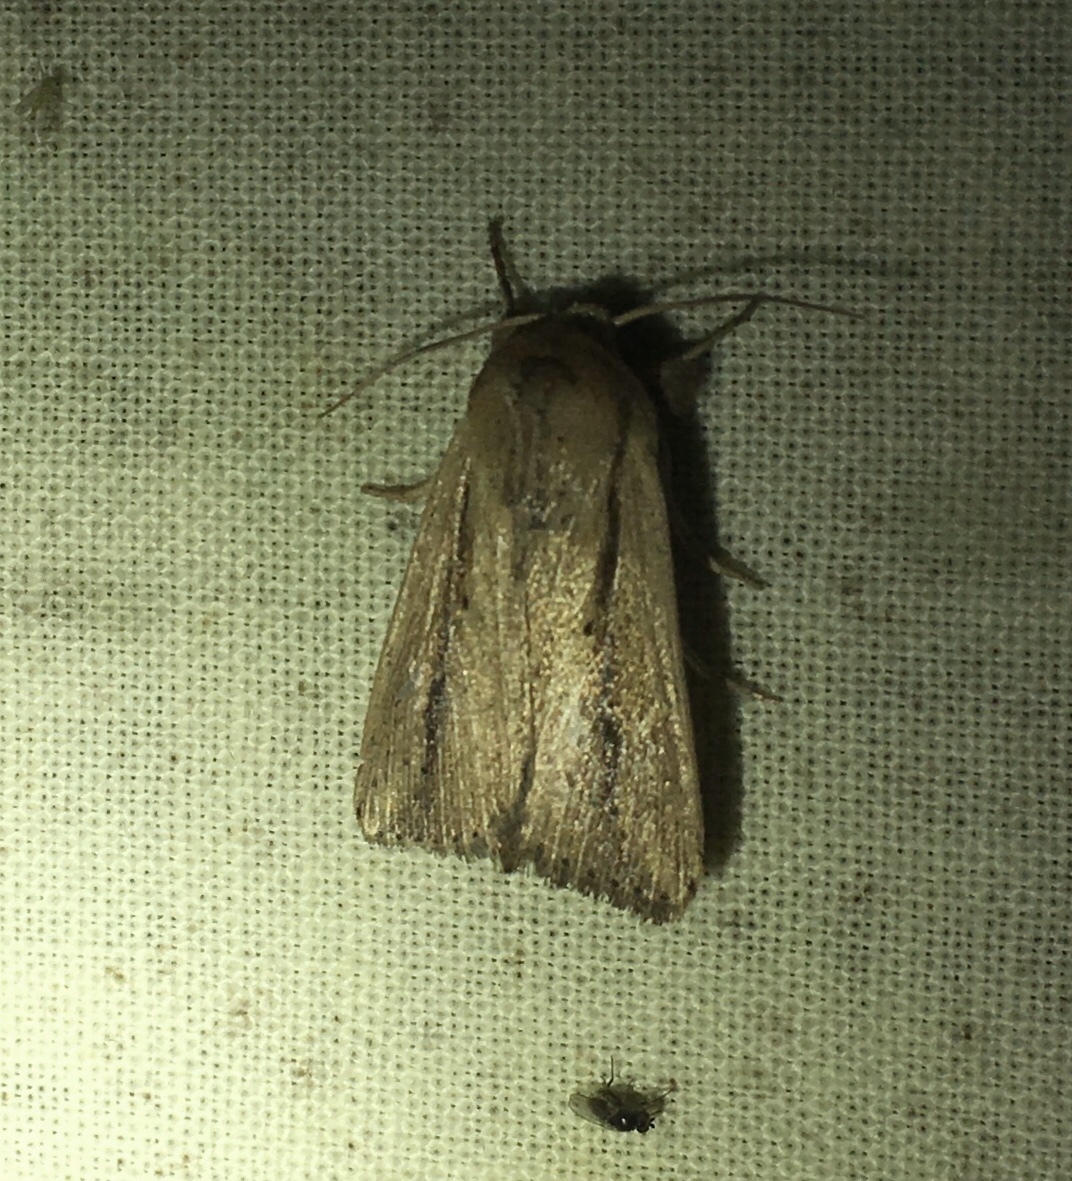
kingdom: Animalia
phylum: Arthropoda
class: Insecta
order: Lepidoptera
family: Noctuidae
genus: Leucania
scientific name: Leucania incognita
